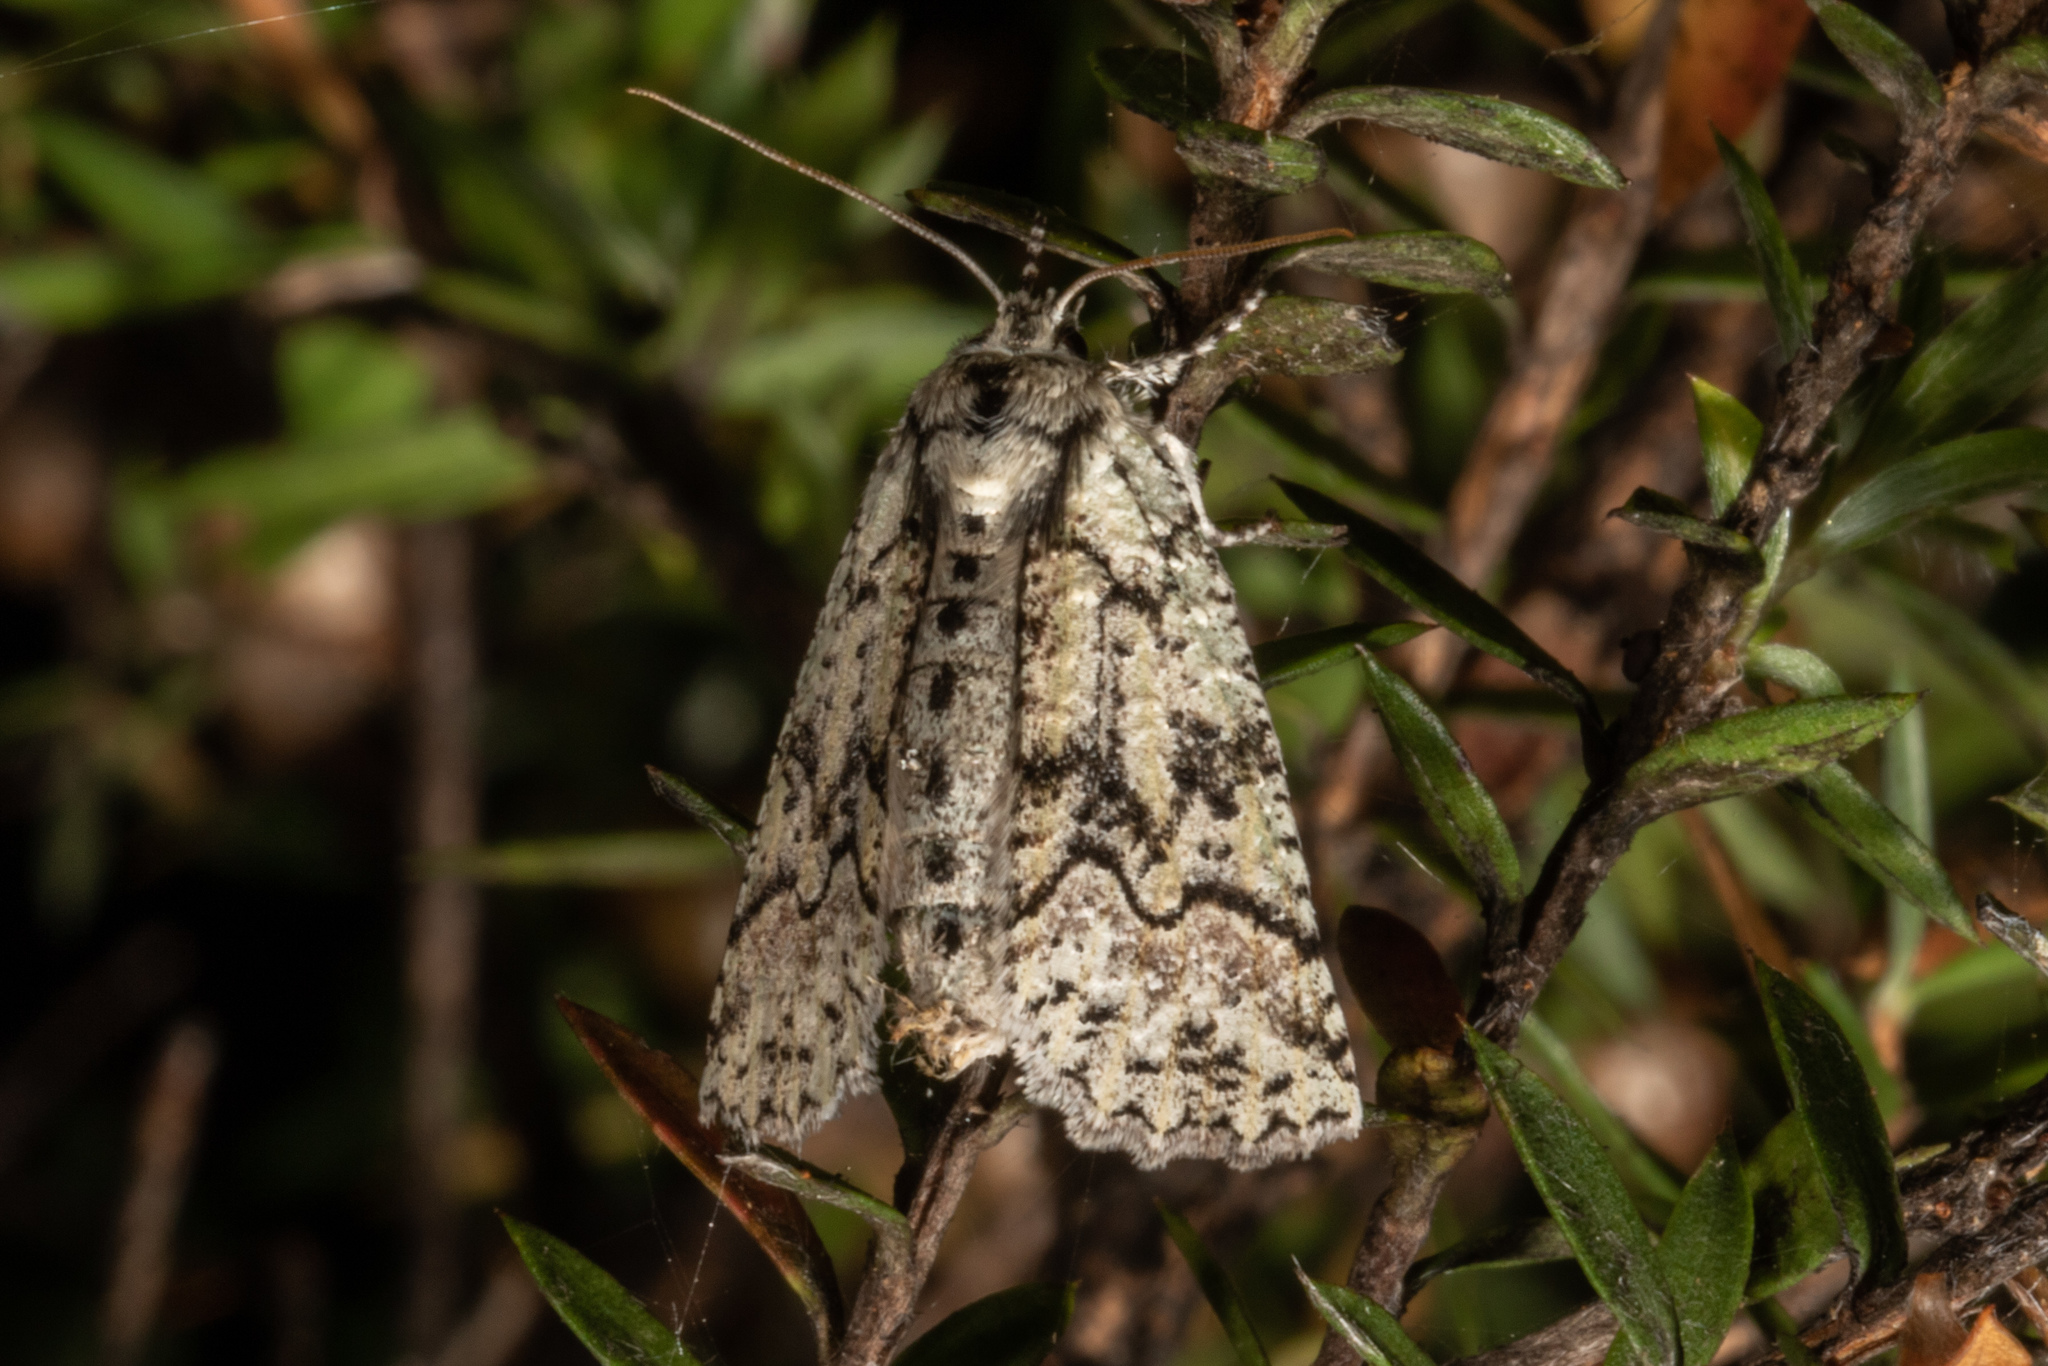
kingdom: Animalia
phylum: Arthropoda
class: Insecta
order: Lepidoptera
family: Geometridae
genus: Declana
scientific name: Declana floccosa
